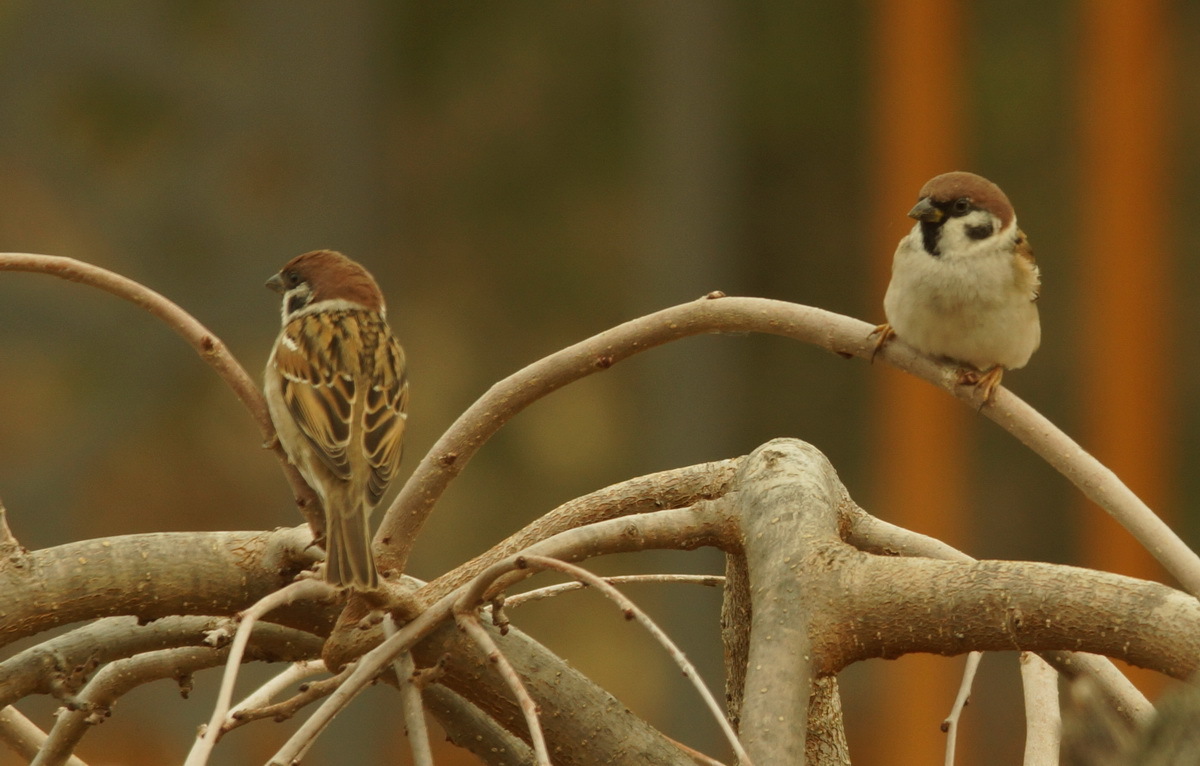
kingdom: Animalia
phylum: Chordata
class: Aves
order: Passeriformes
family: Passeridae
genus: Passer
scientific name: Passer montanus
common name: Eurasian tree sparrow
